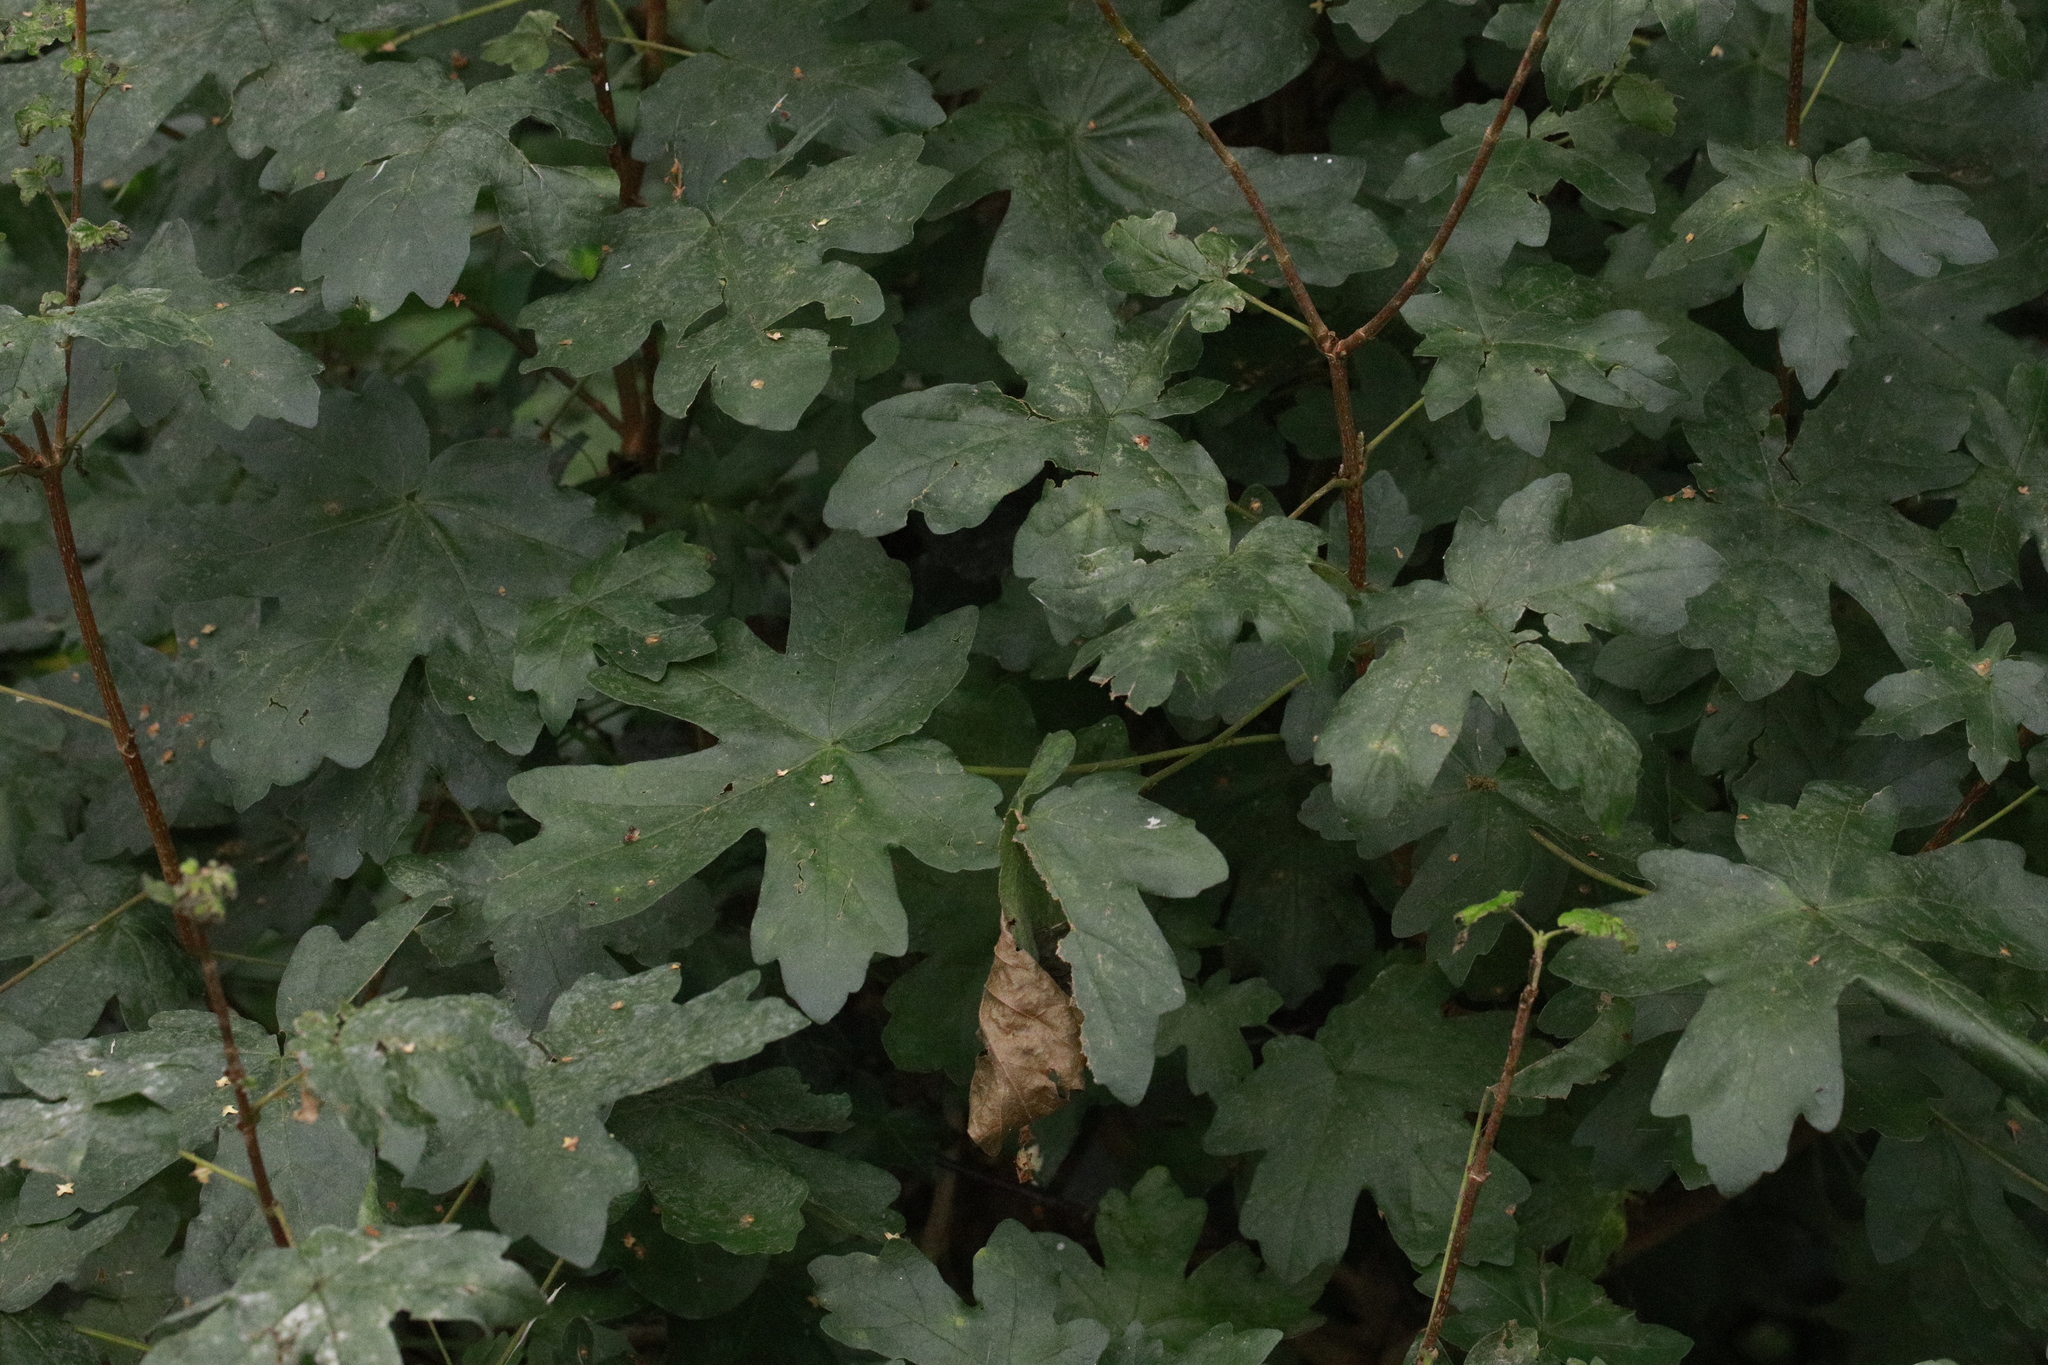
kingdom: Plantae
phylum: Tracheophyta
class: Magnoliopsida
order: Sapindales
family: Sapindaceae
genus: Acer
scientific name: Acer campestre
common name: Field maple
